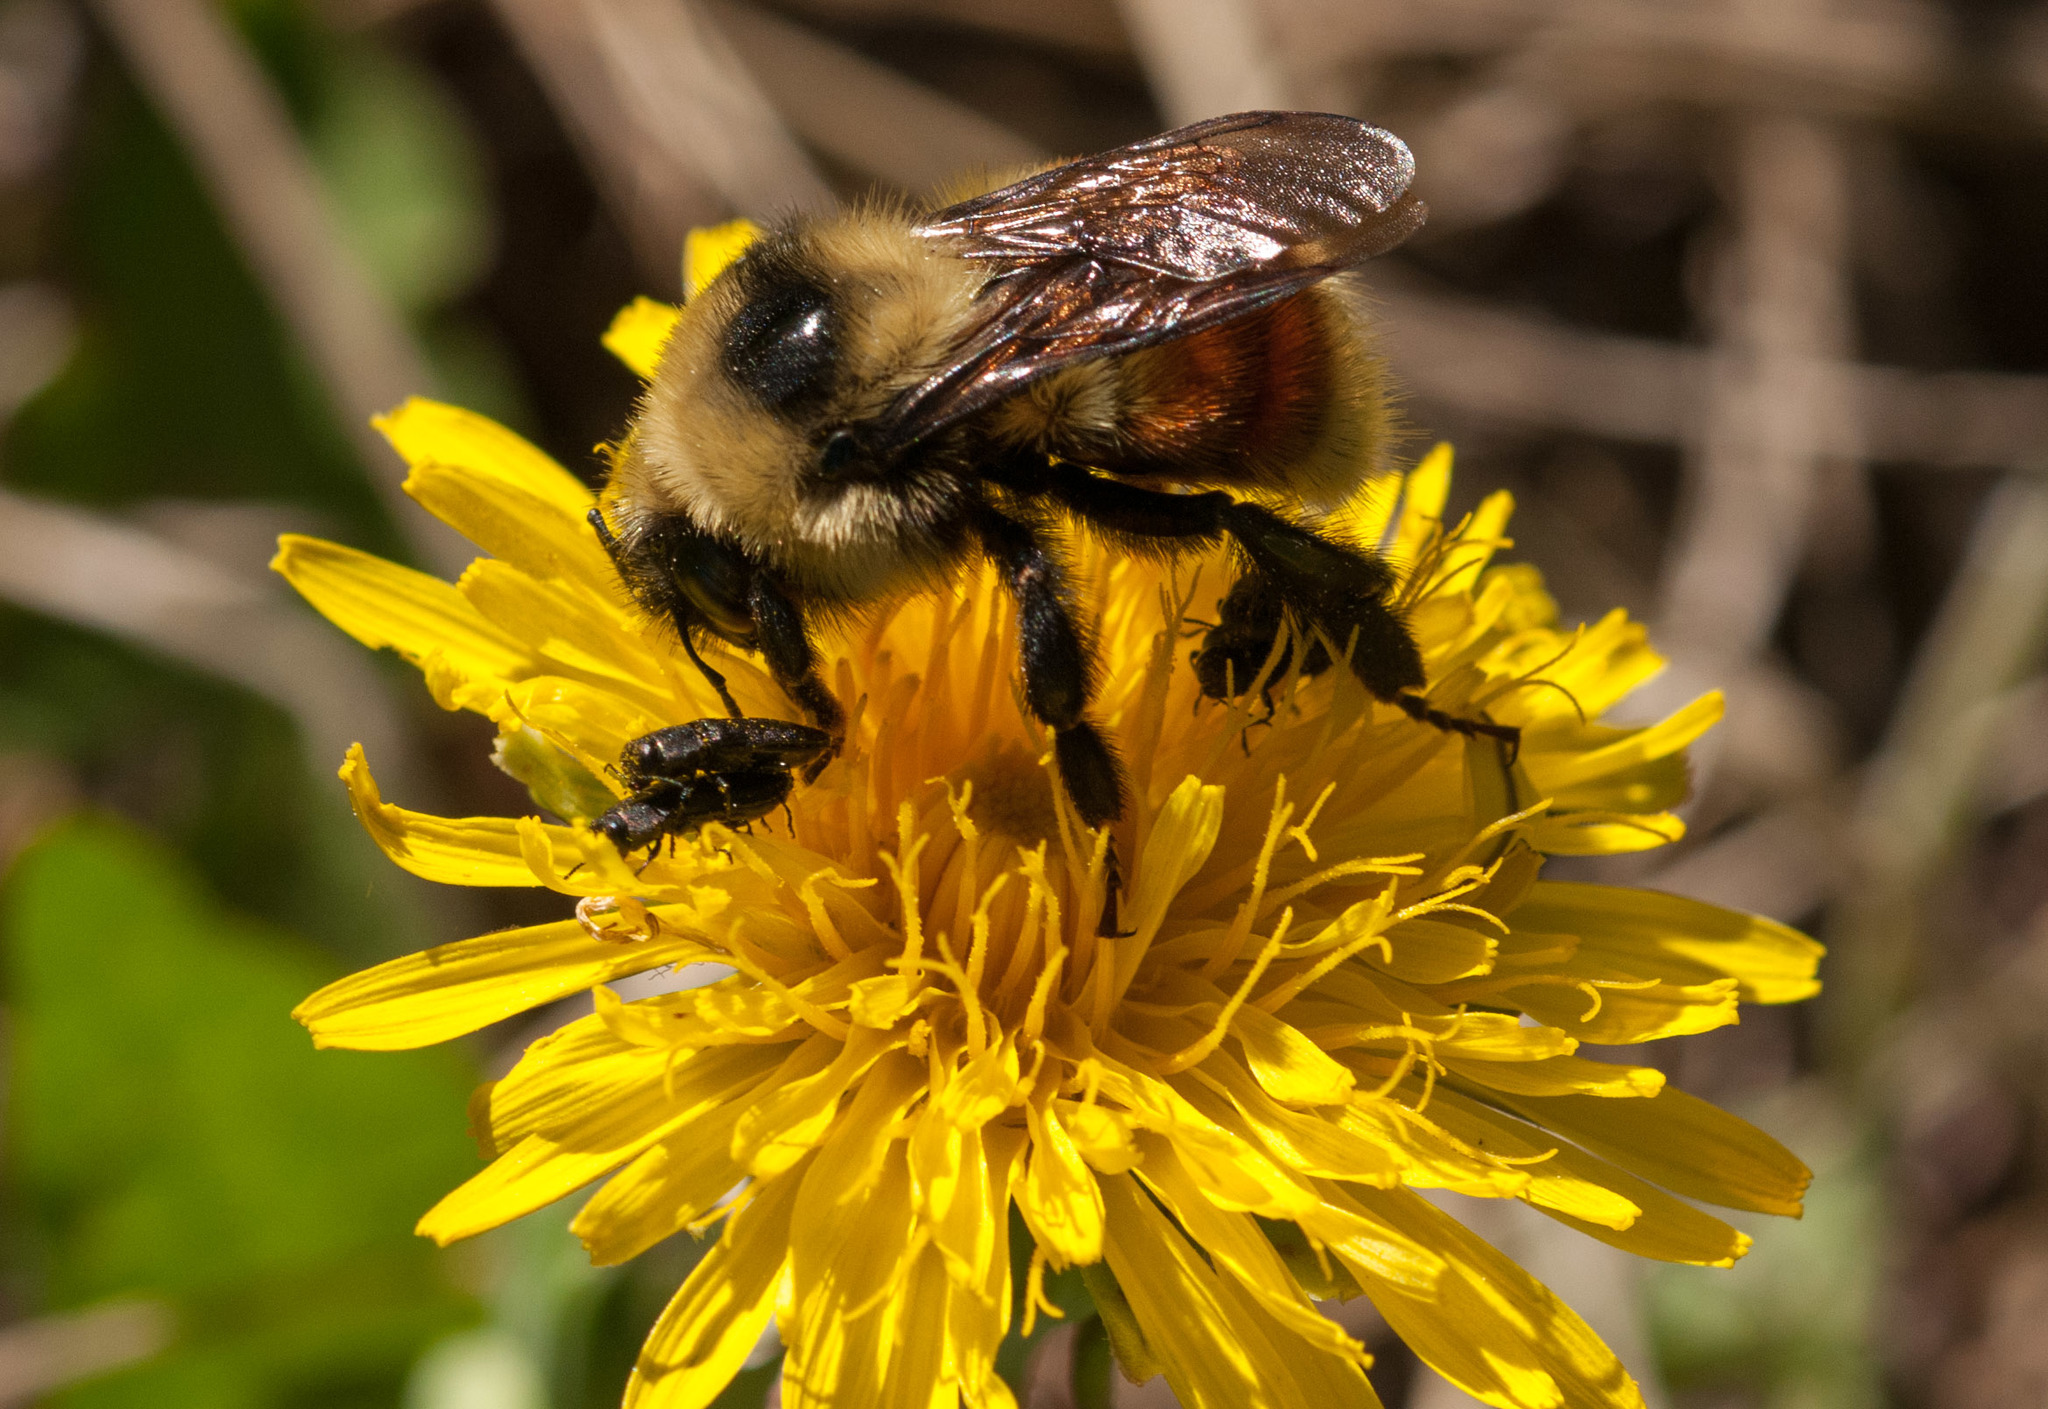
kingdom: Animalia
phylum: Arthropoda
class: Insecta
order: Hymenoptera
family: Apidae
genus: Bombus
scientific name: Bombus rufocinctus
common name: Red-belted bumble bee
